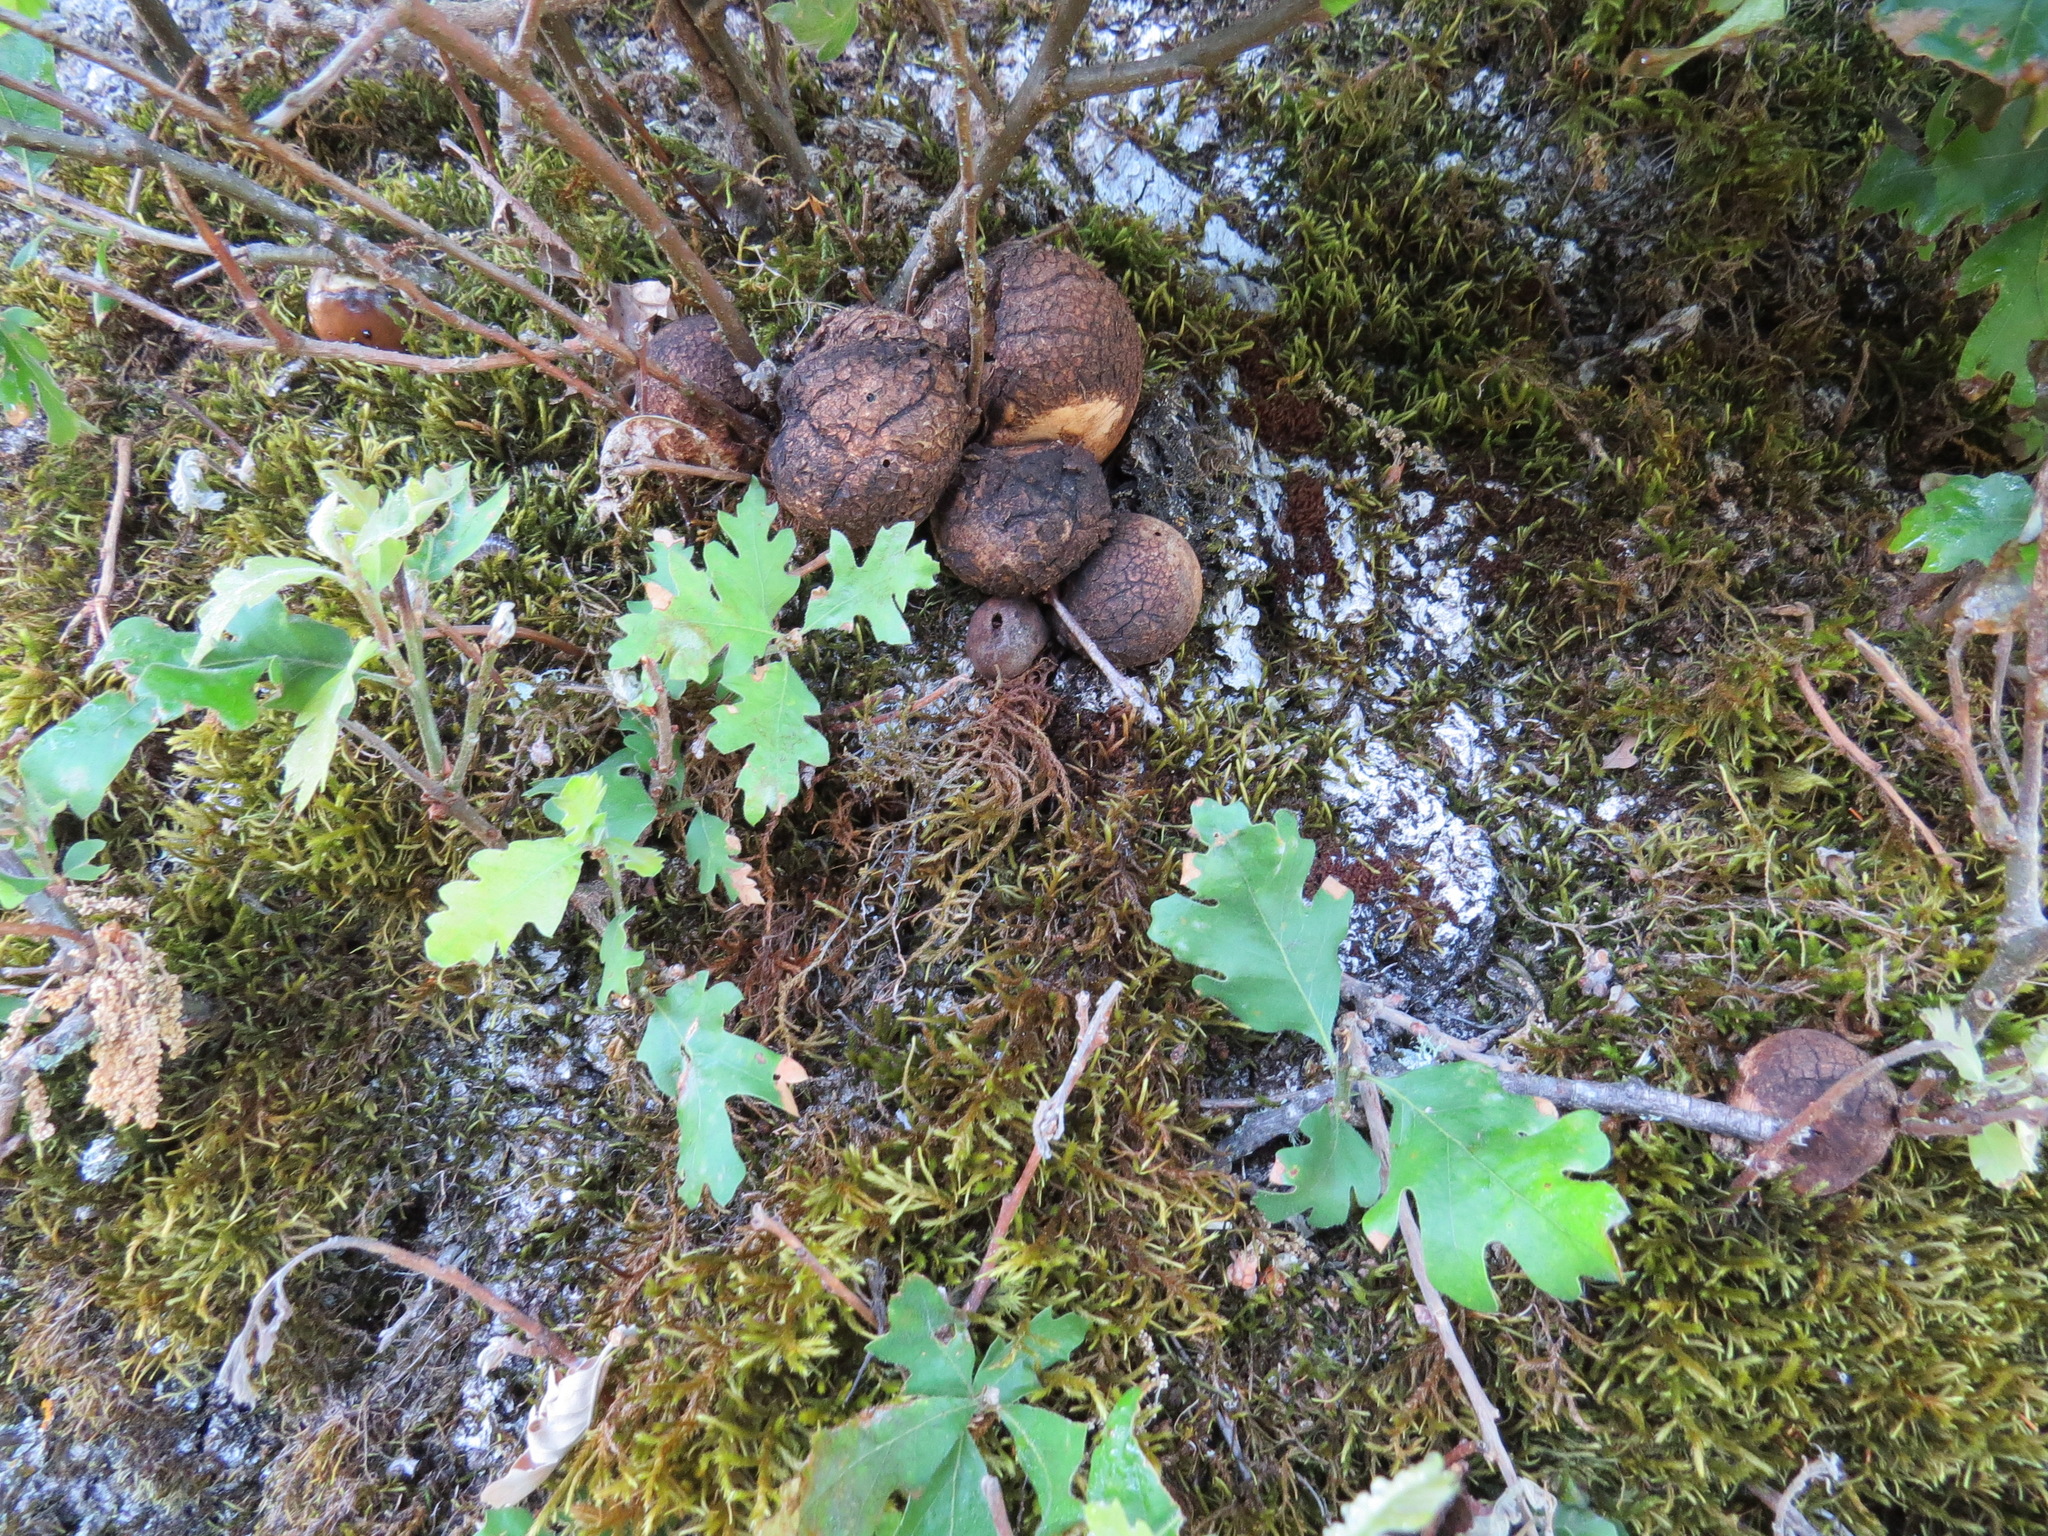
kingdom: Plantae
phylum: Tracheophyta
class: Magnoliopsida
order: Fagales
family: Fagaceae
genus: Quercus
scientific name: Quercus lobata
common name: Valley oak
